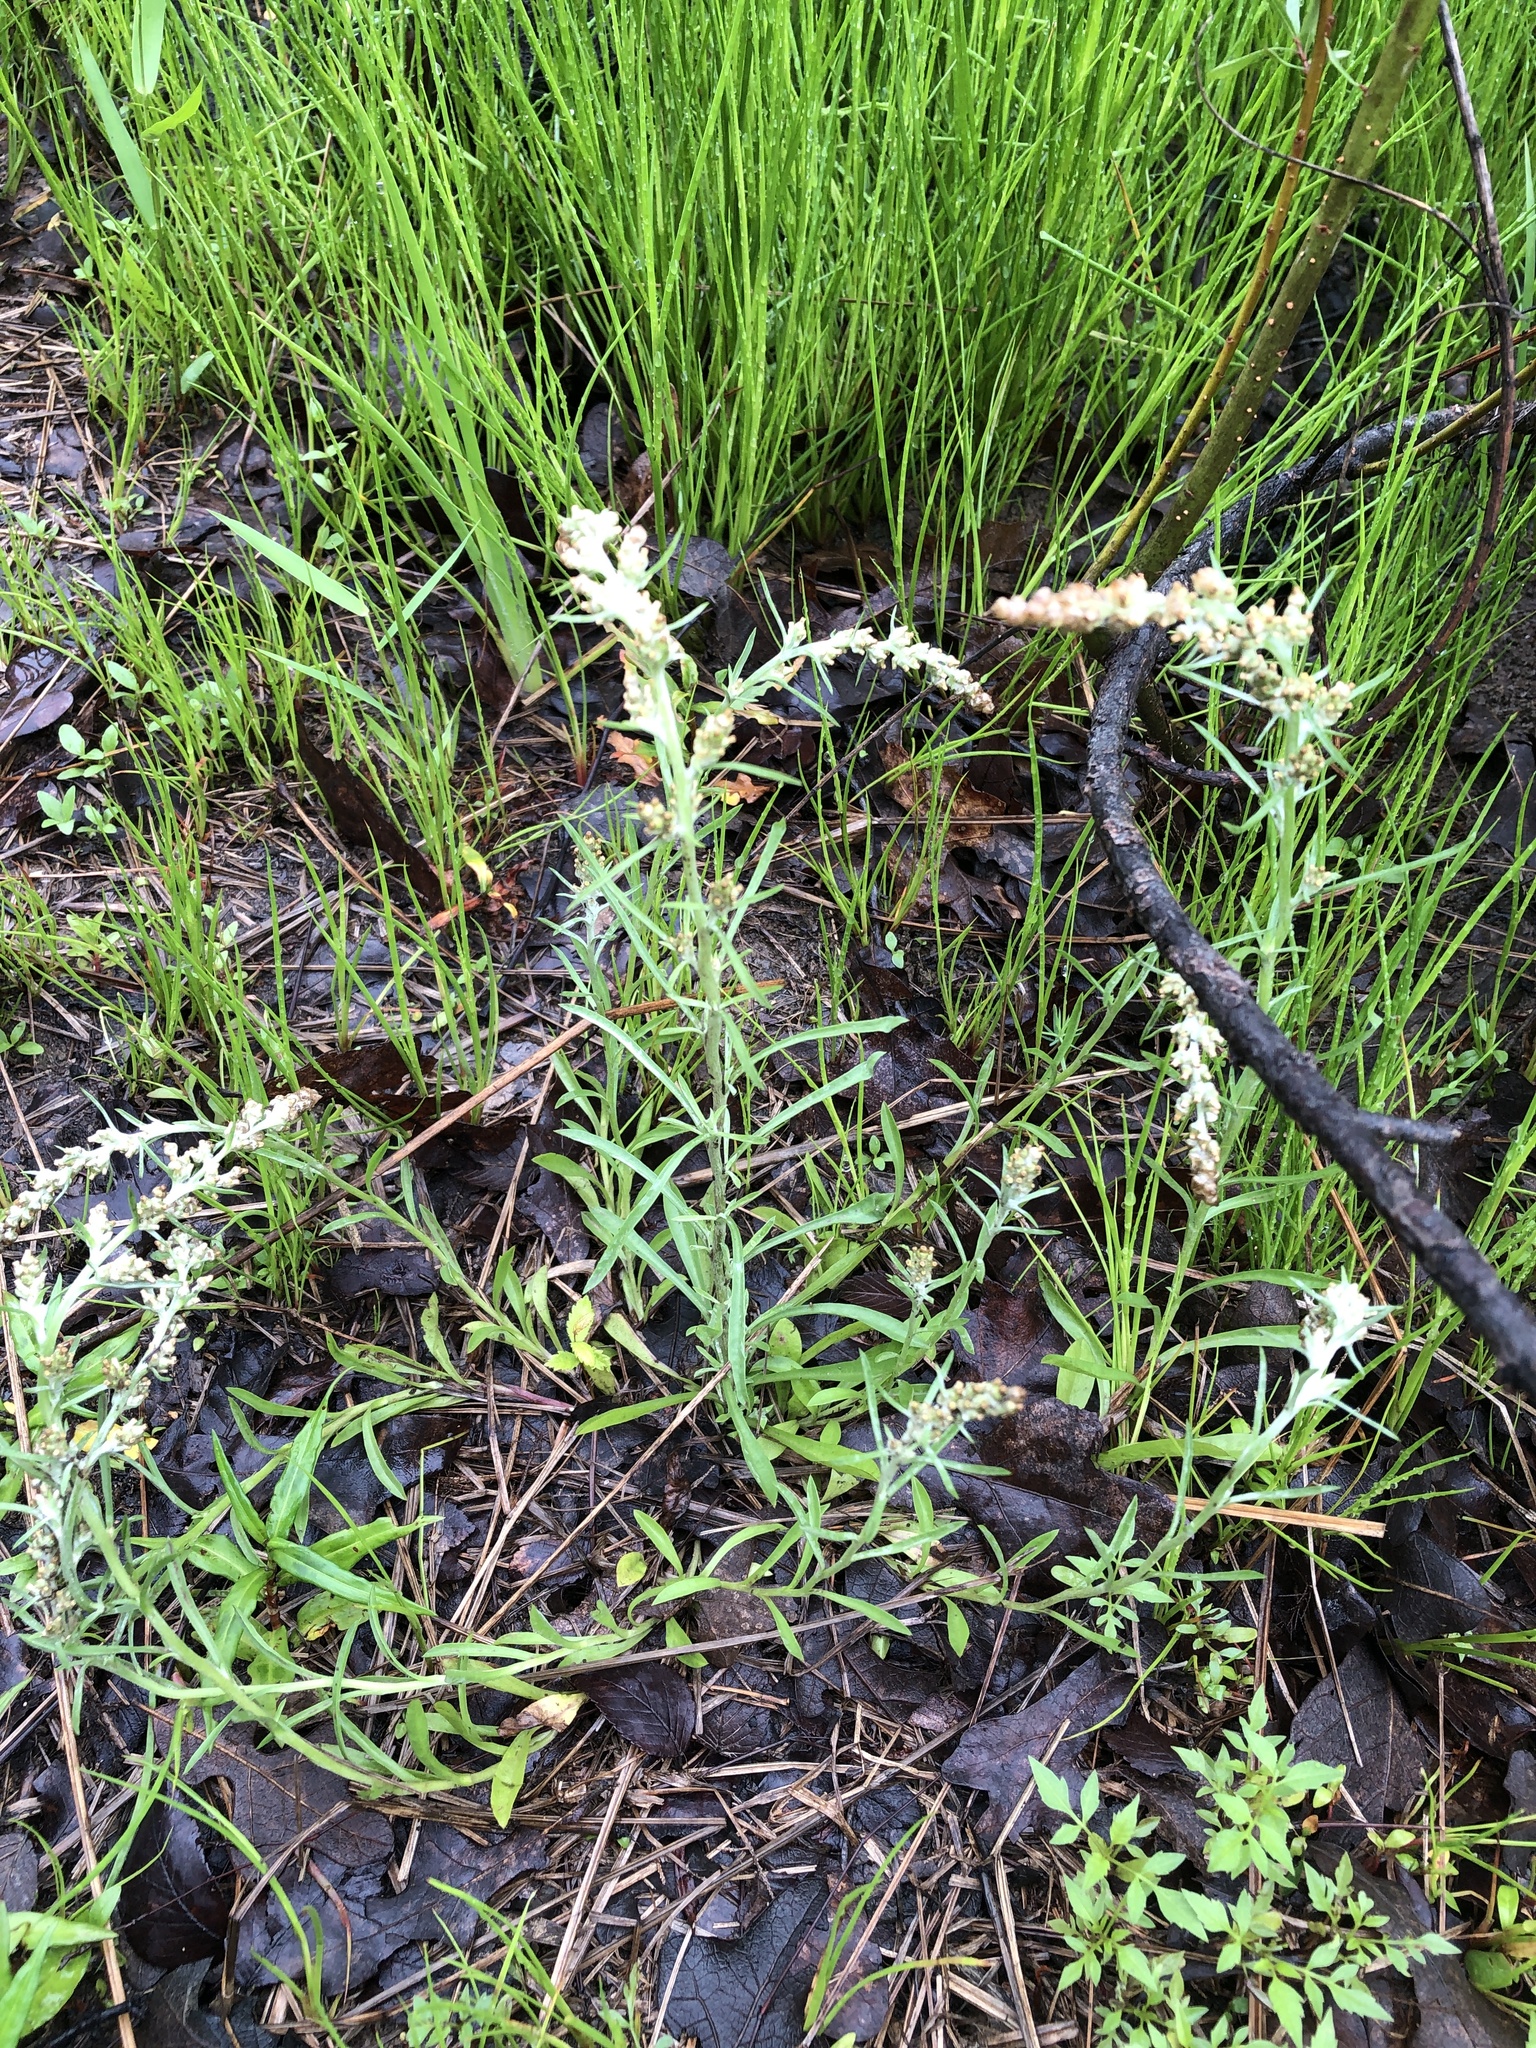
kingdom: Plantae
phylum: Tracheophyta
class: Magnoliopsida
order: Asterales
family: Asteraceae
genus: Gamochaeta
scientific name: Gamochaeta pensylvanica
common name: Pennsylvania everlasting
